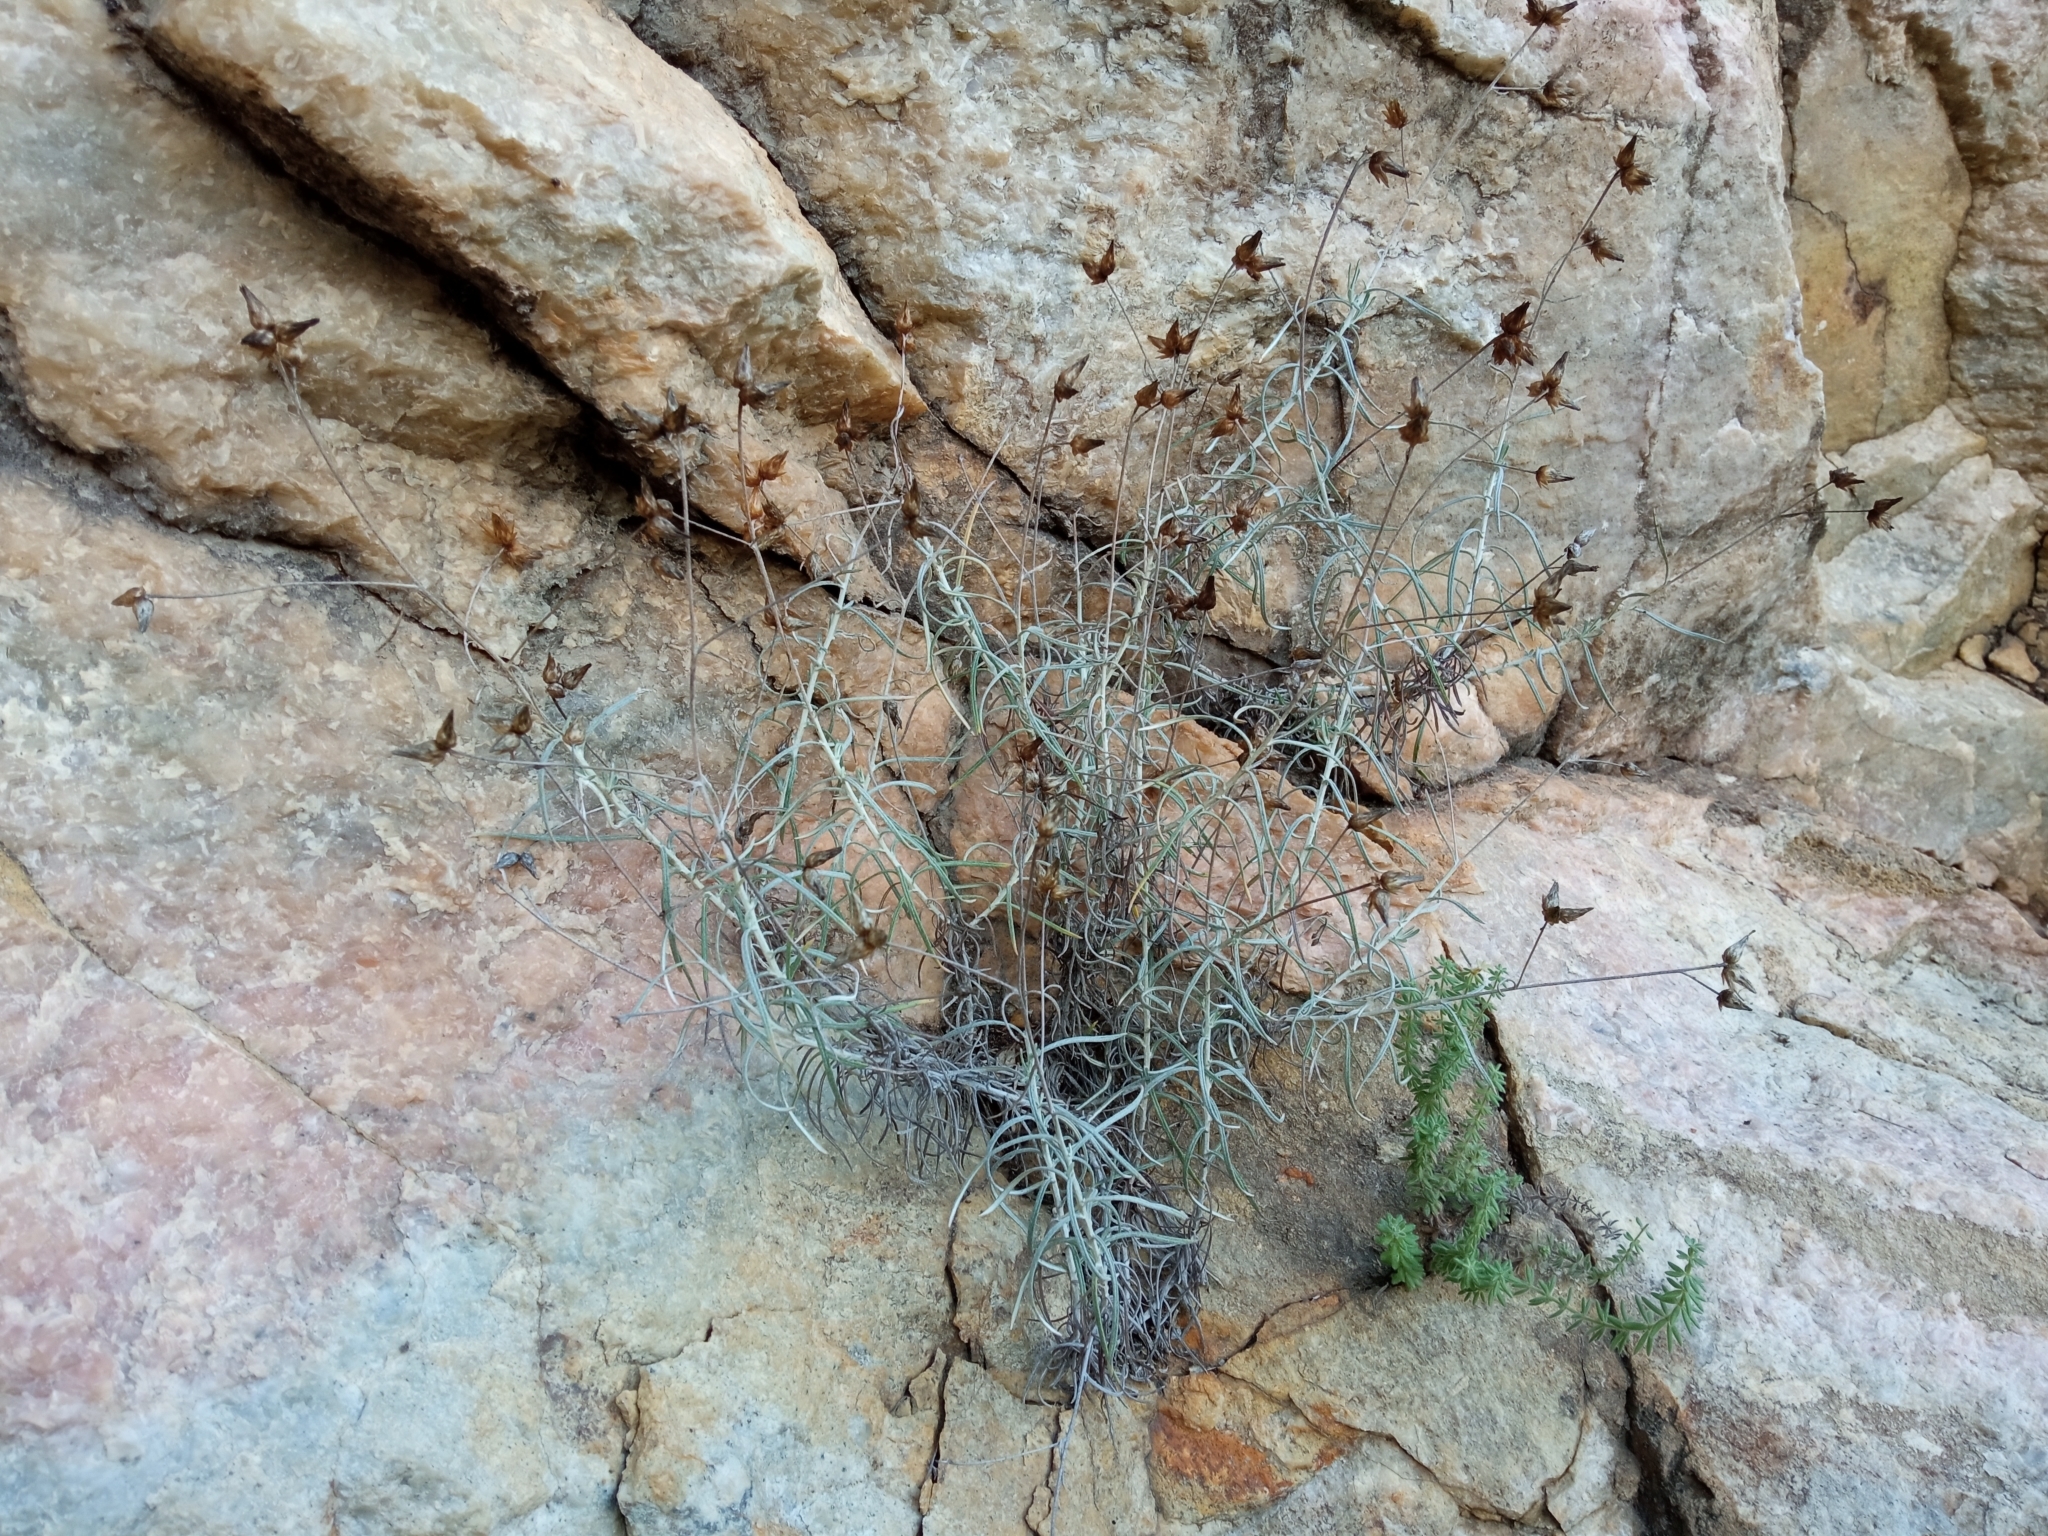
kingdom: Plantae
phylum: Tracheophyta
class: Magnoliopsida
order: Asterales
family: Asteraceae
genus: Phagnalon
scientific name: Phagnalon sordidum
